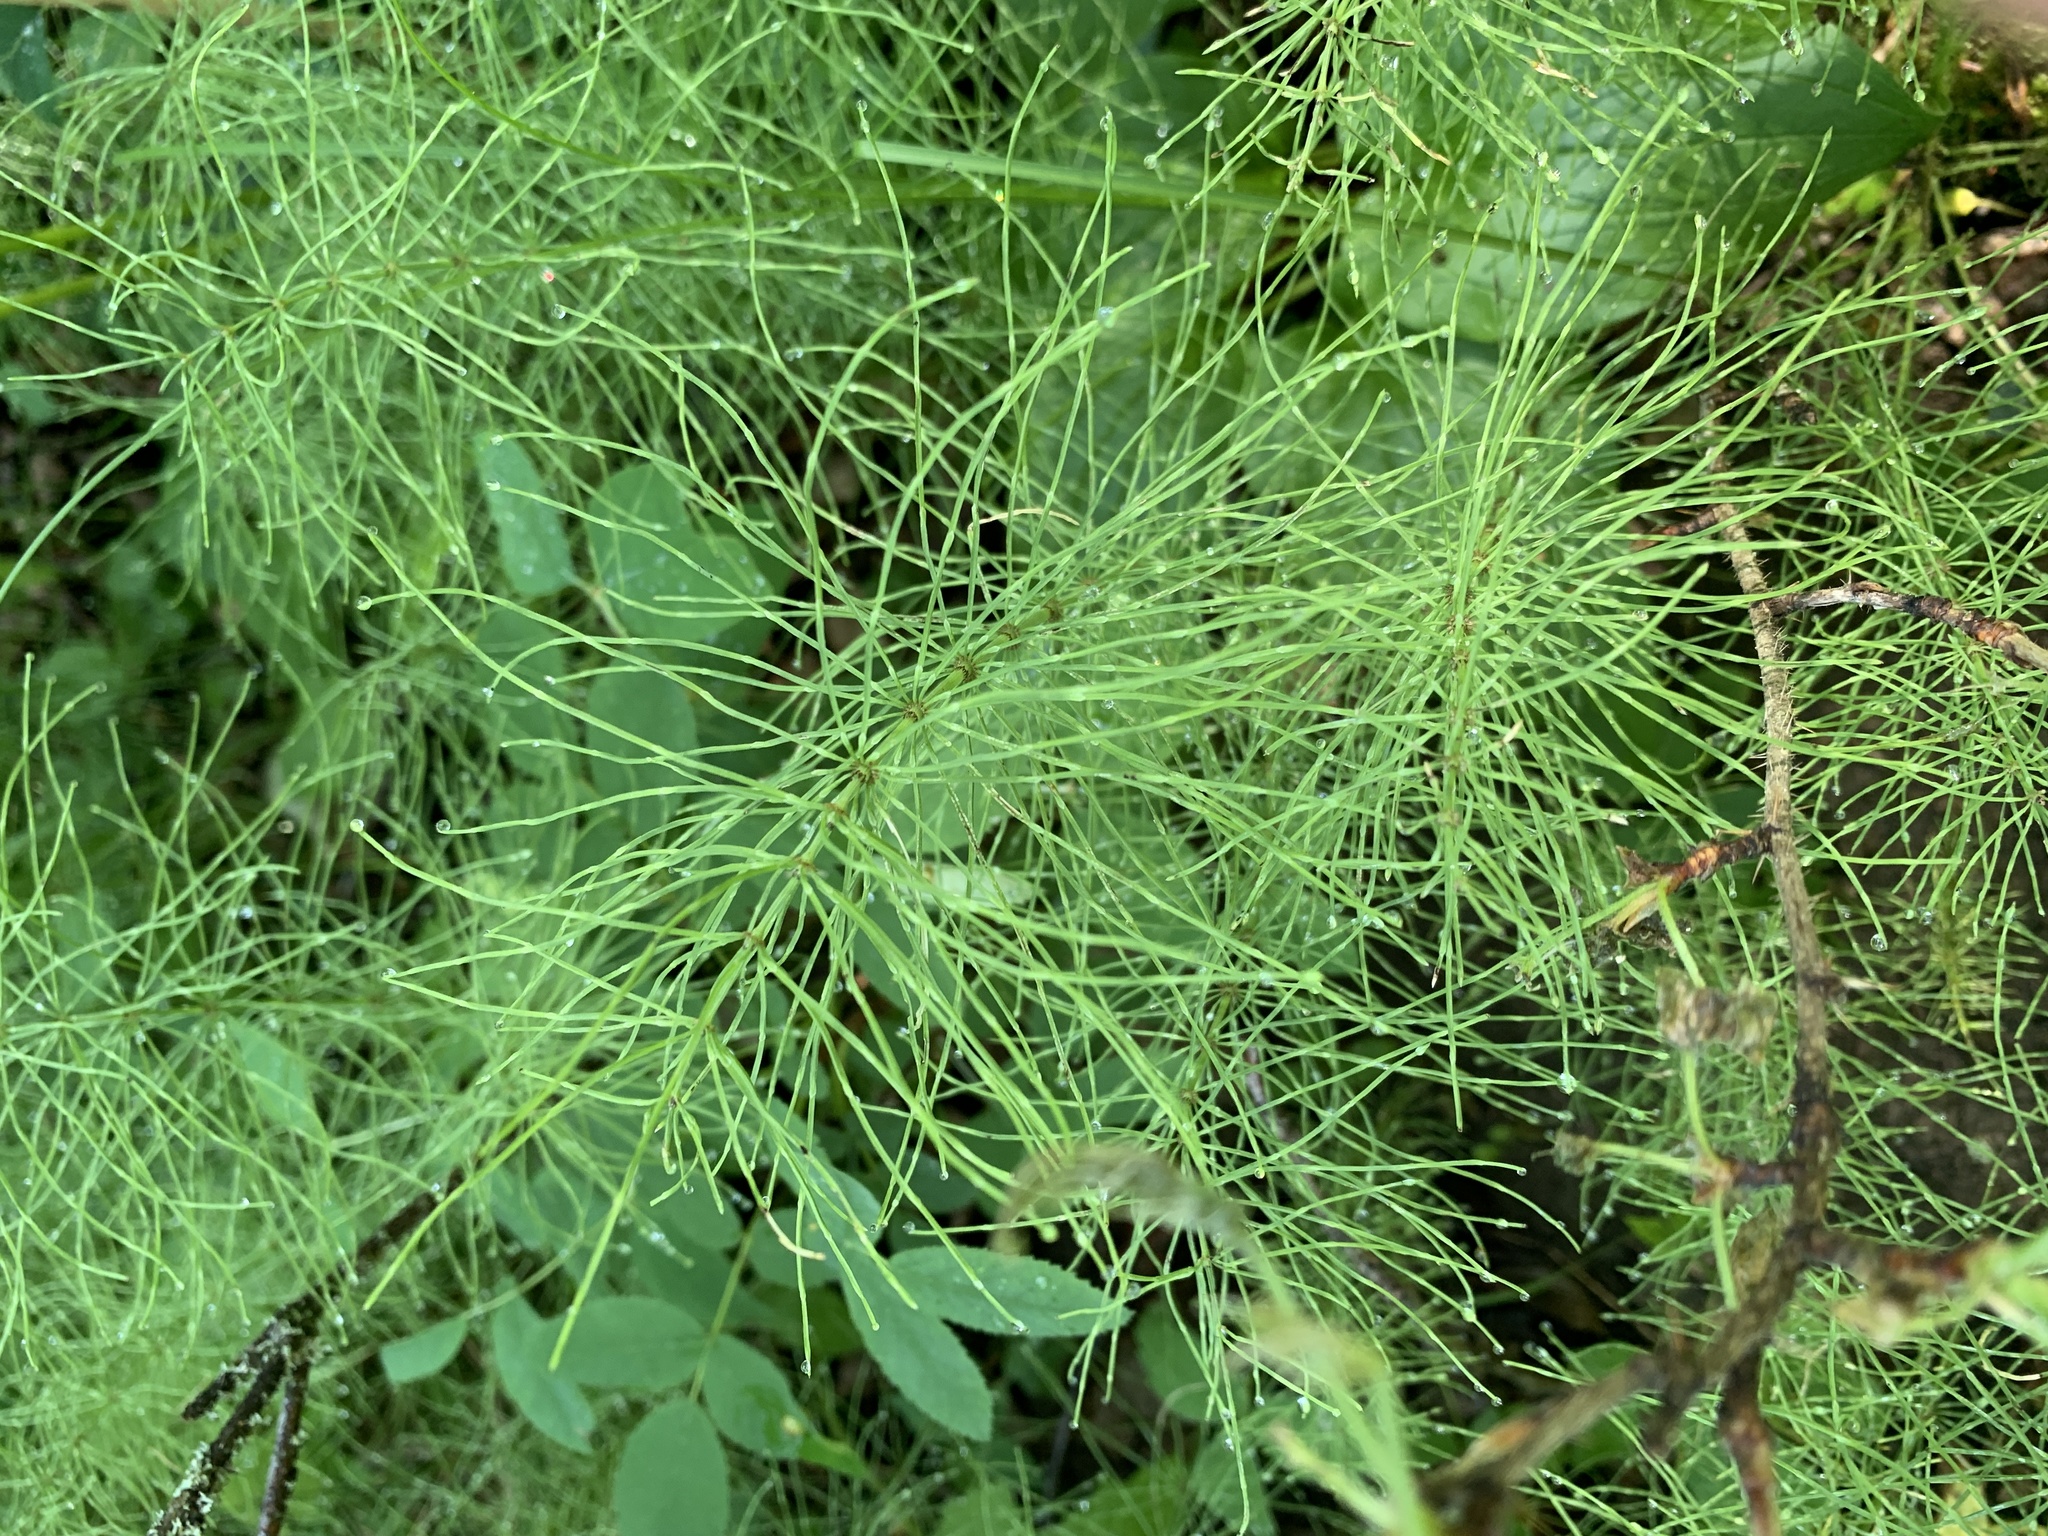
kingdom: Plantae
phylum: Tracheophyta
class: Polypodiopsida
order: Equisetales
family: Equisetaceae
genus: Equisetum
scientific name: Equisetum arvense
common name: Field horsetail
